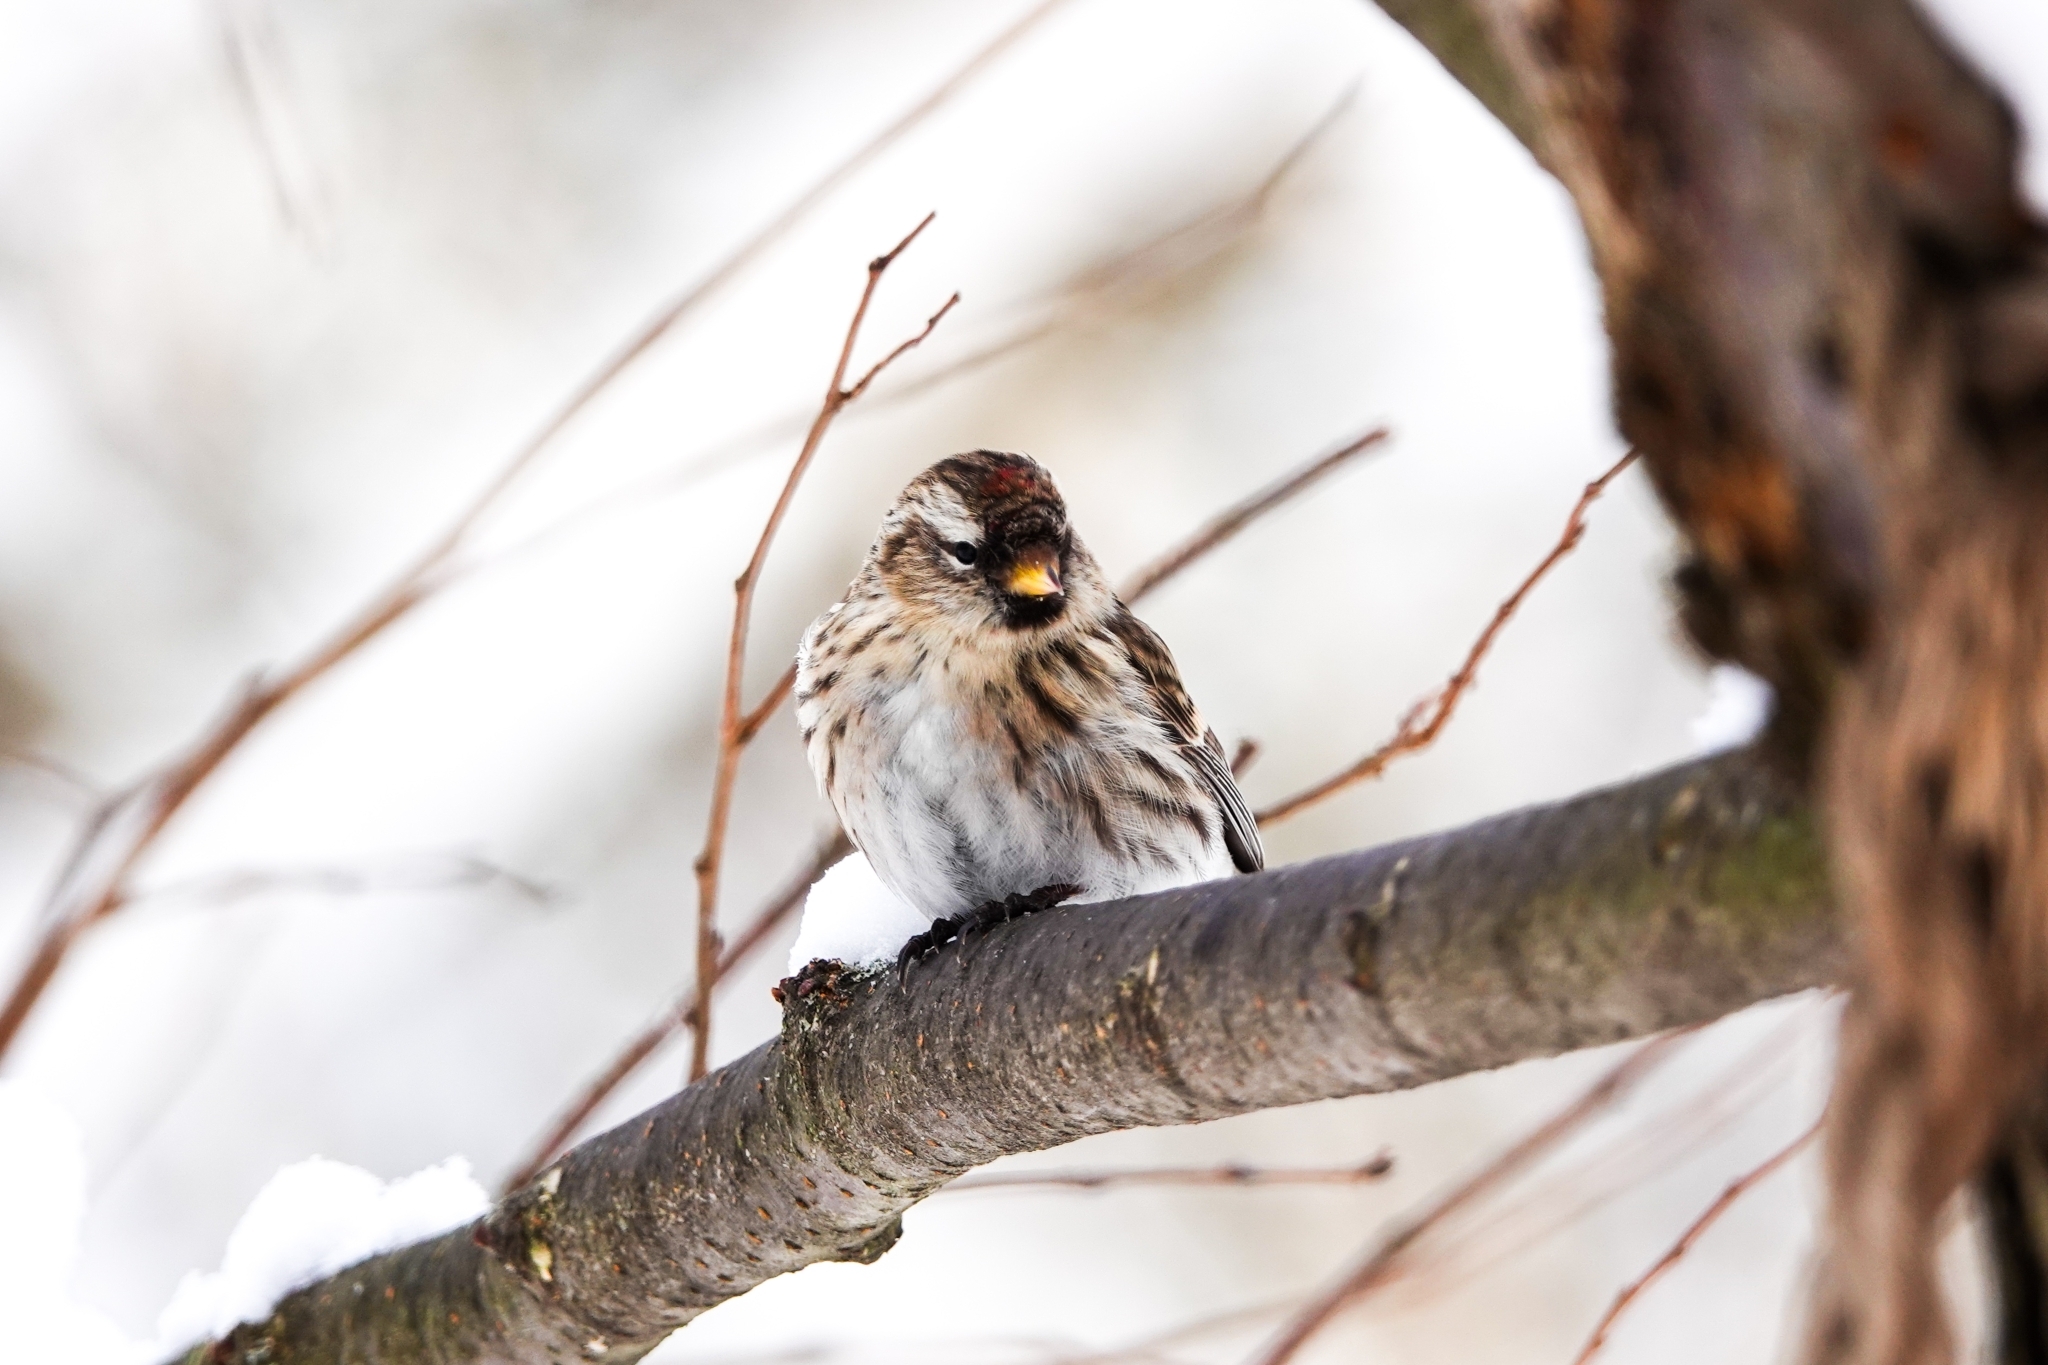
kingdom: Animalia
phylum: Chordata
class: Aves
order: Passeriformes
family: Fringillidae
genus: Acanthis
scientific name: Acanthis flammea
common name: Common redpoll
